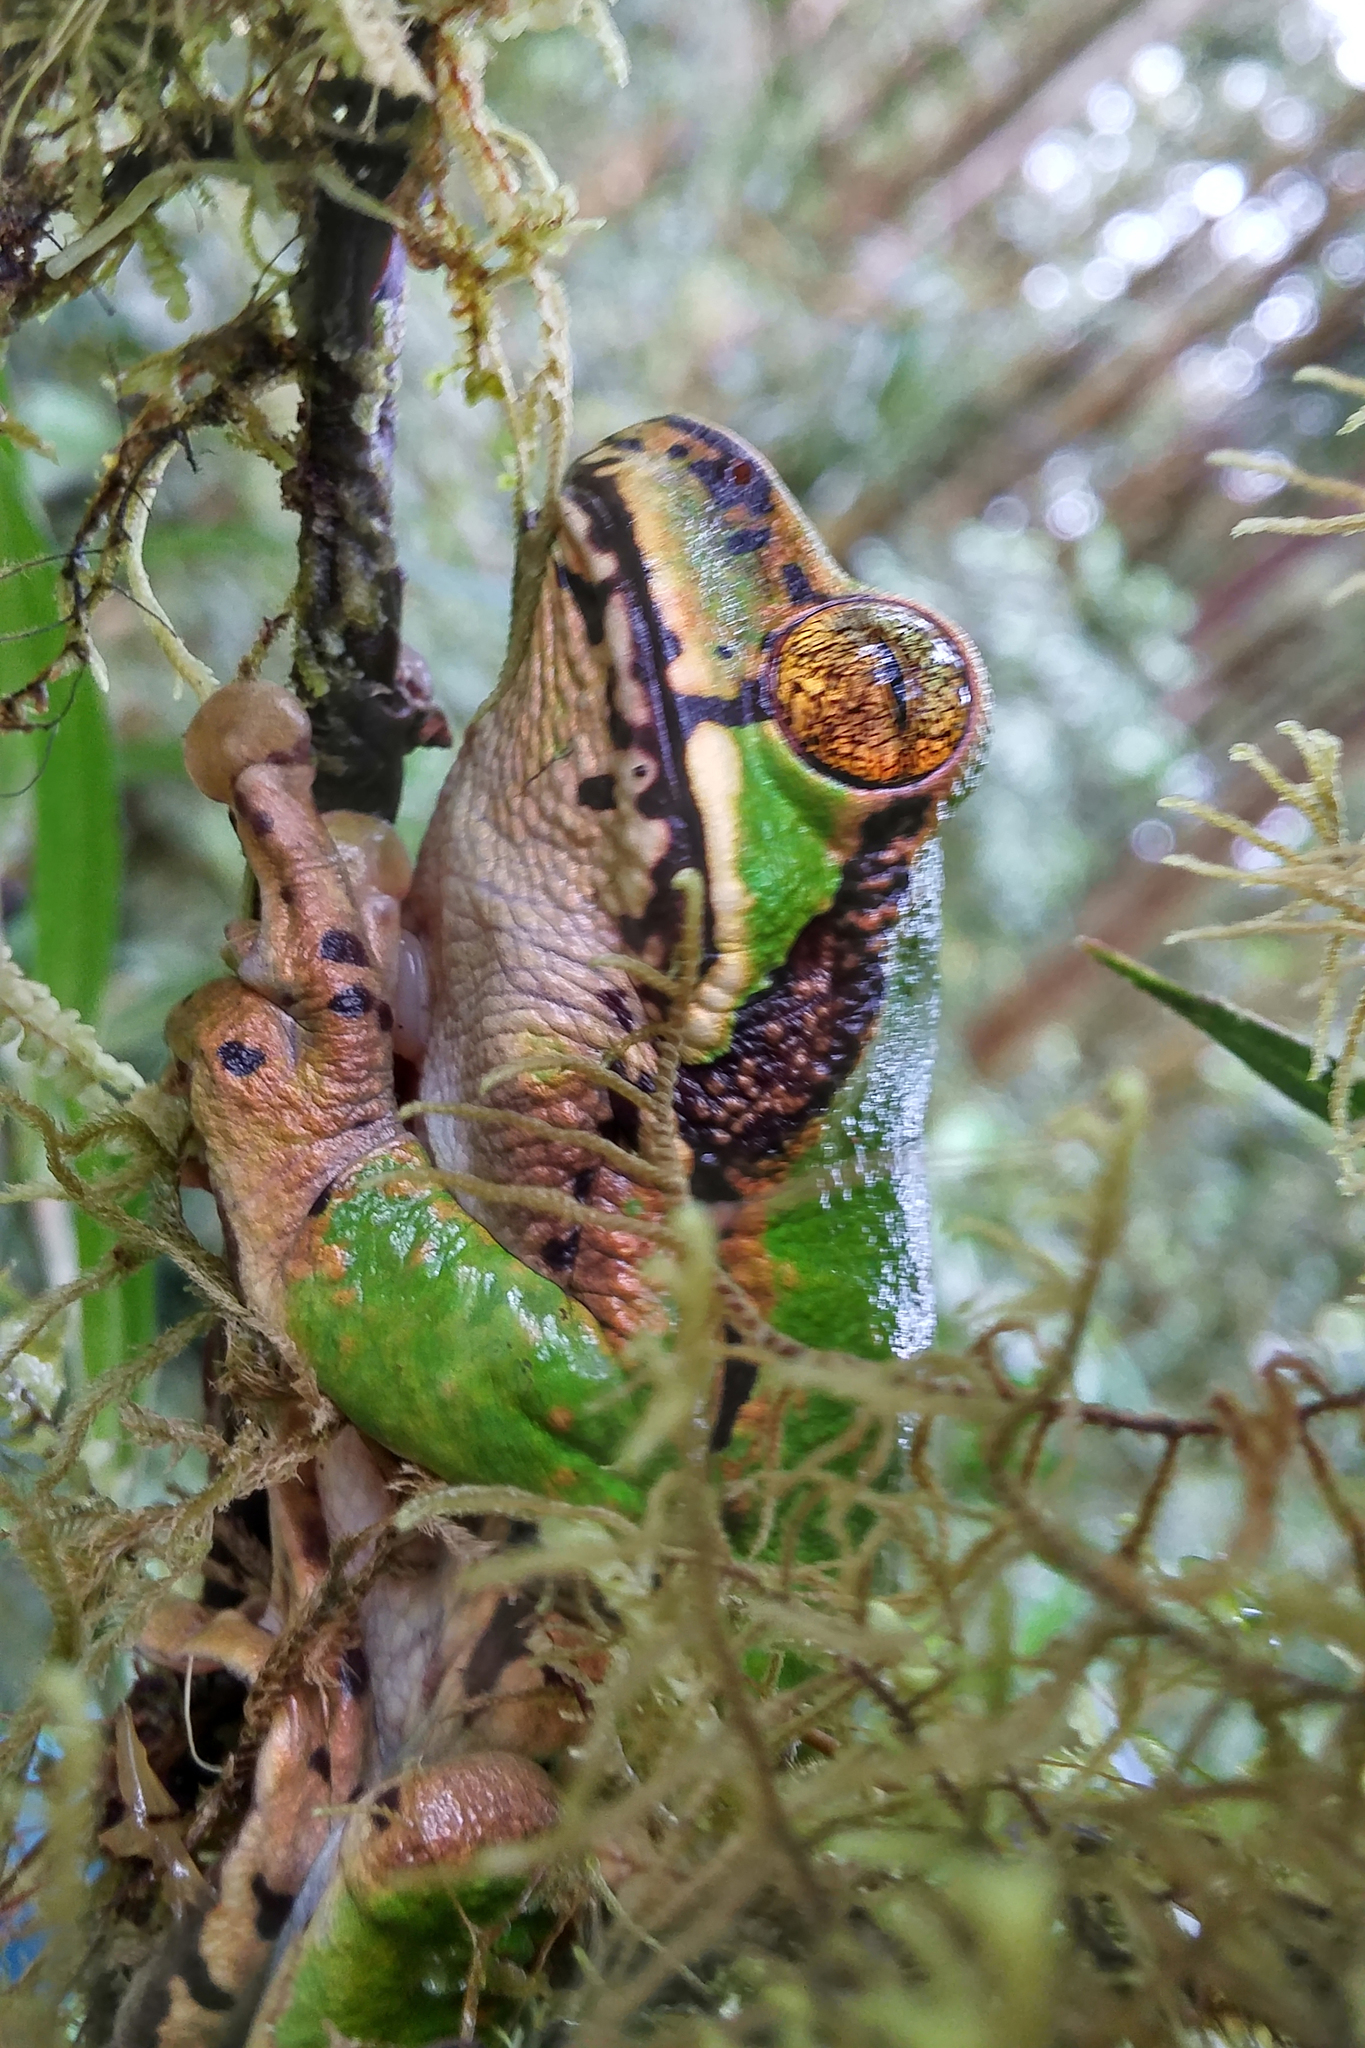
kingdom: Animalia
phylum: Chordata
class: Amphibia
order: Anura
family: Pelodryadidae
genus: Litoria
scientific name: Litoria angiana
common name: Angiana treefrog
